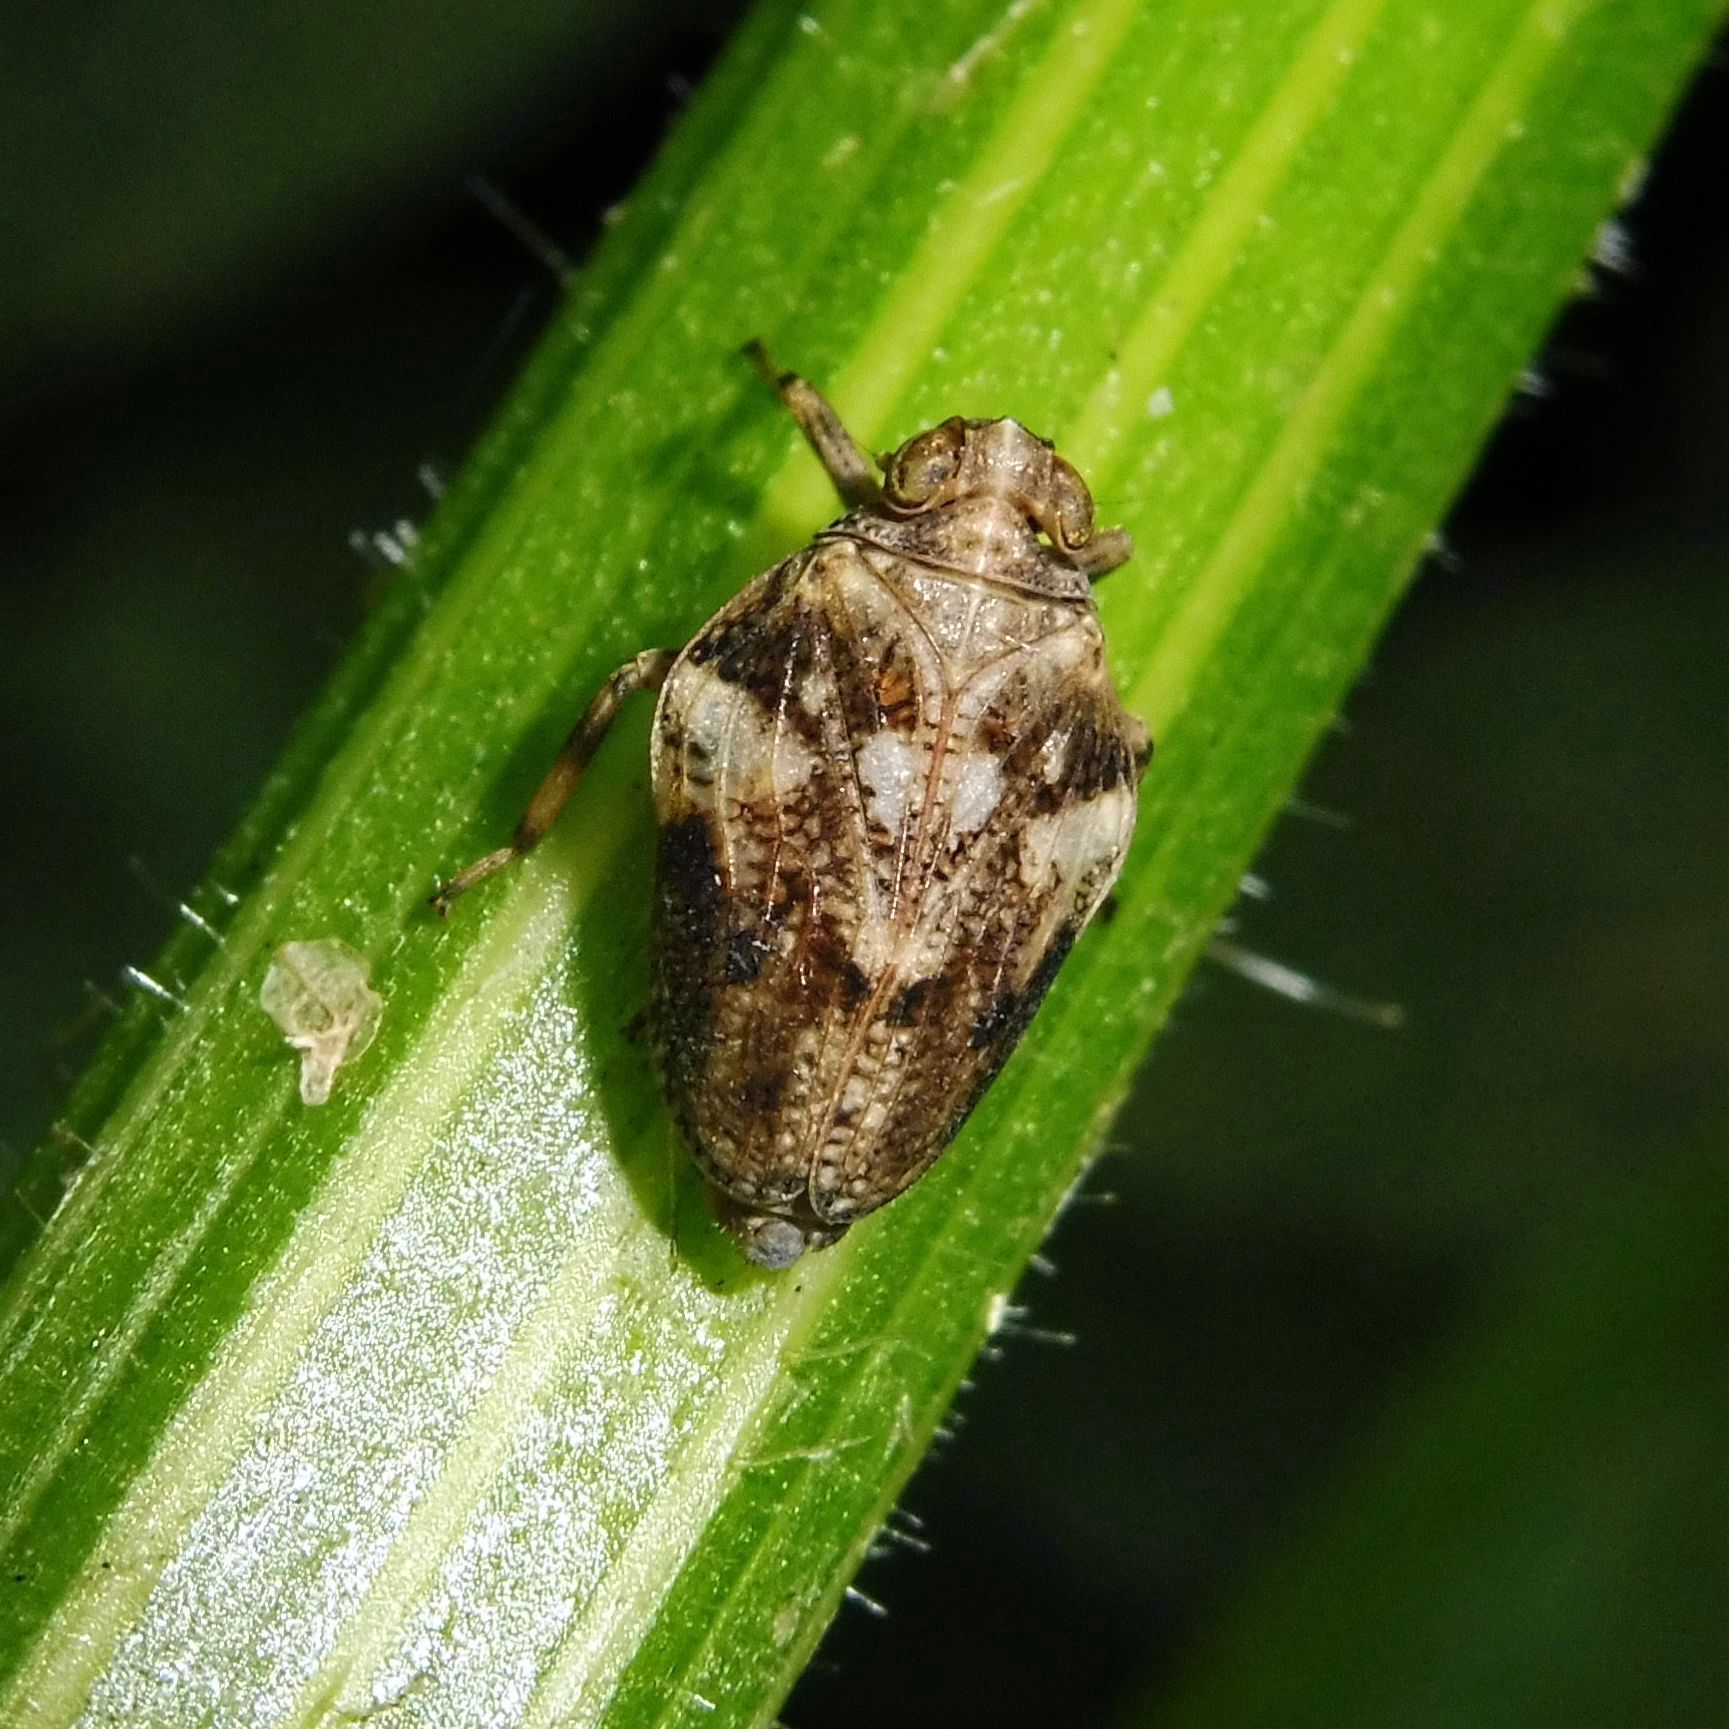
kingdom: Animalia
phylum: Arthropoda
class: Insecta
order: Hemiptera
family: Issidae
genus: Issus
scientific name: Issus coleoptratus
